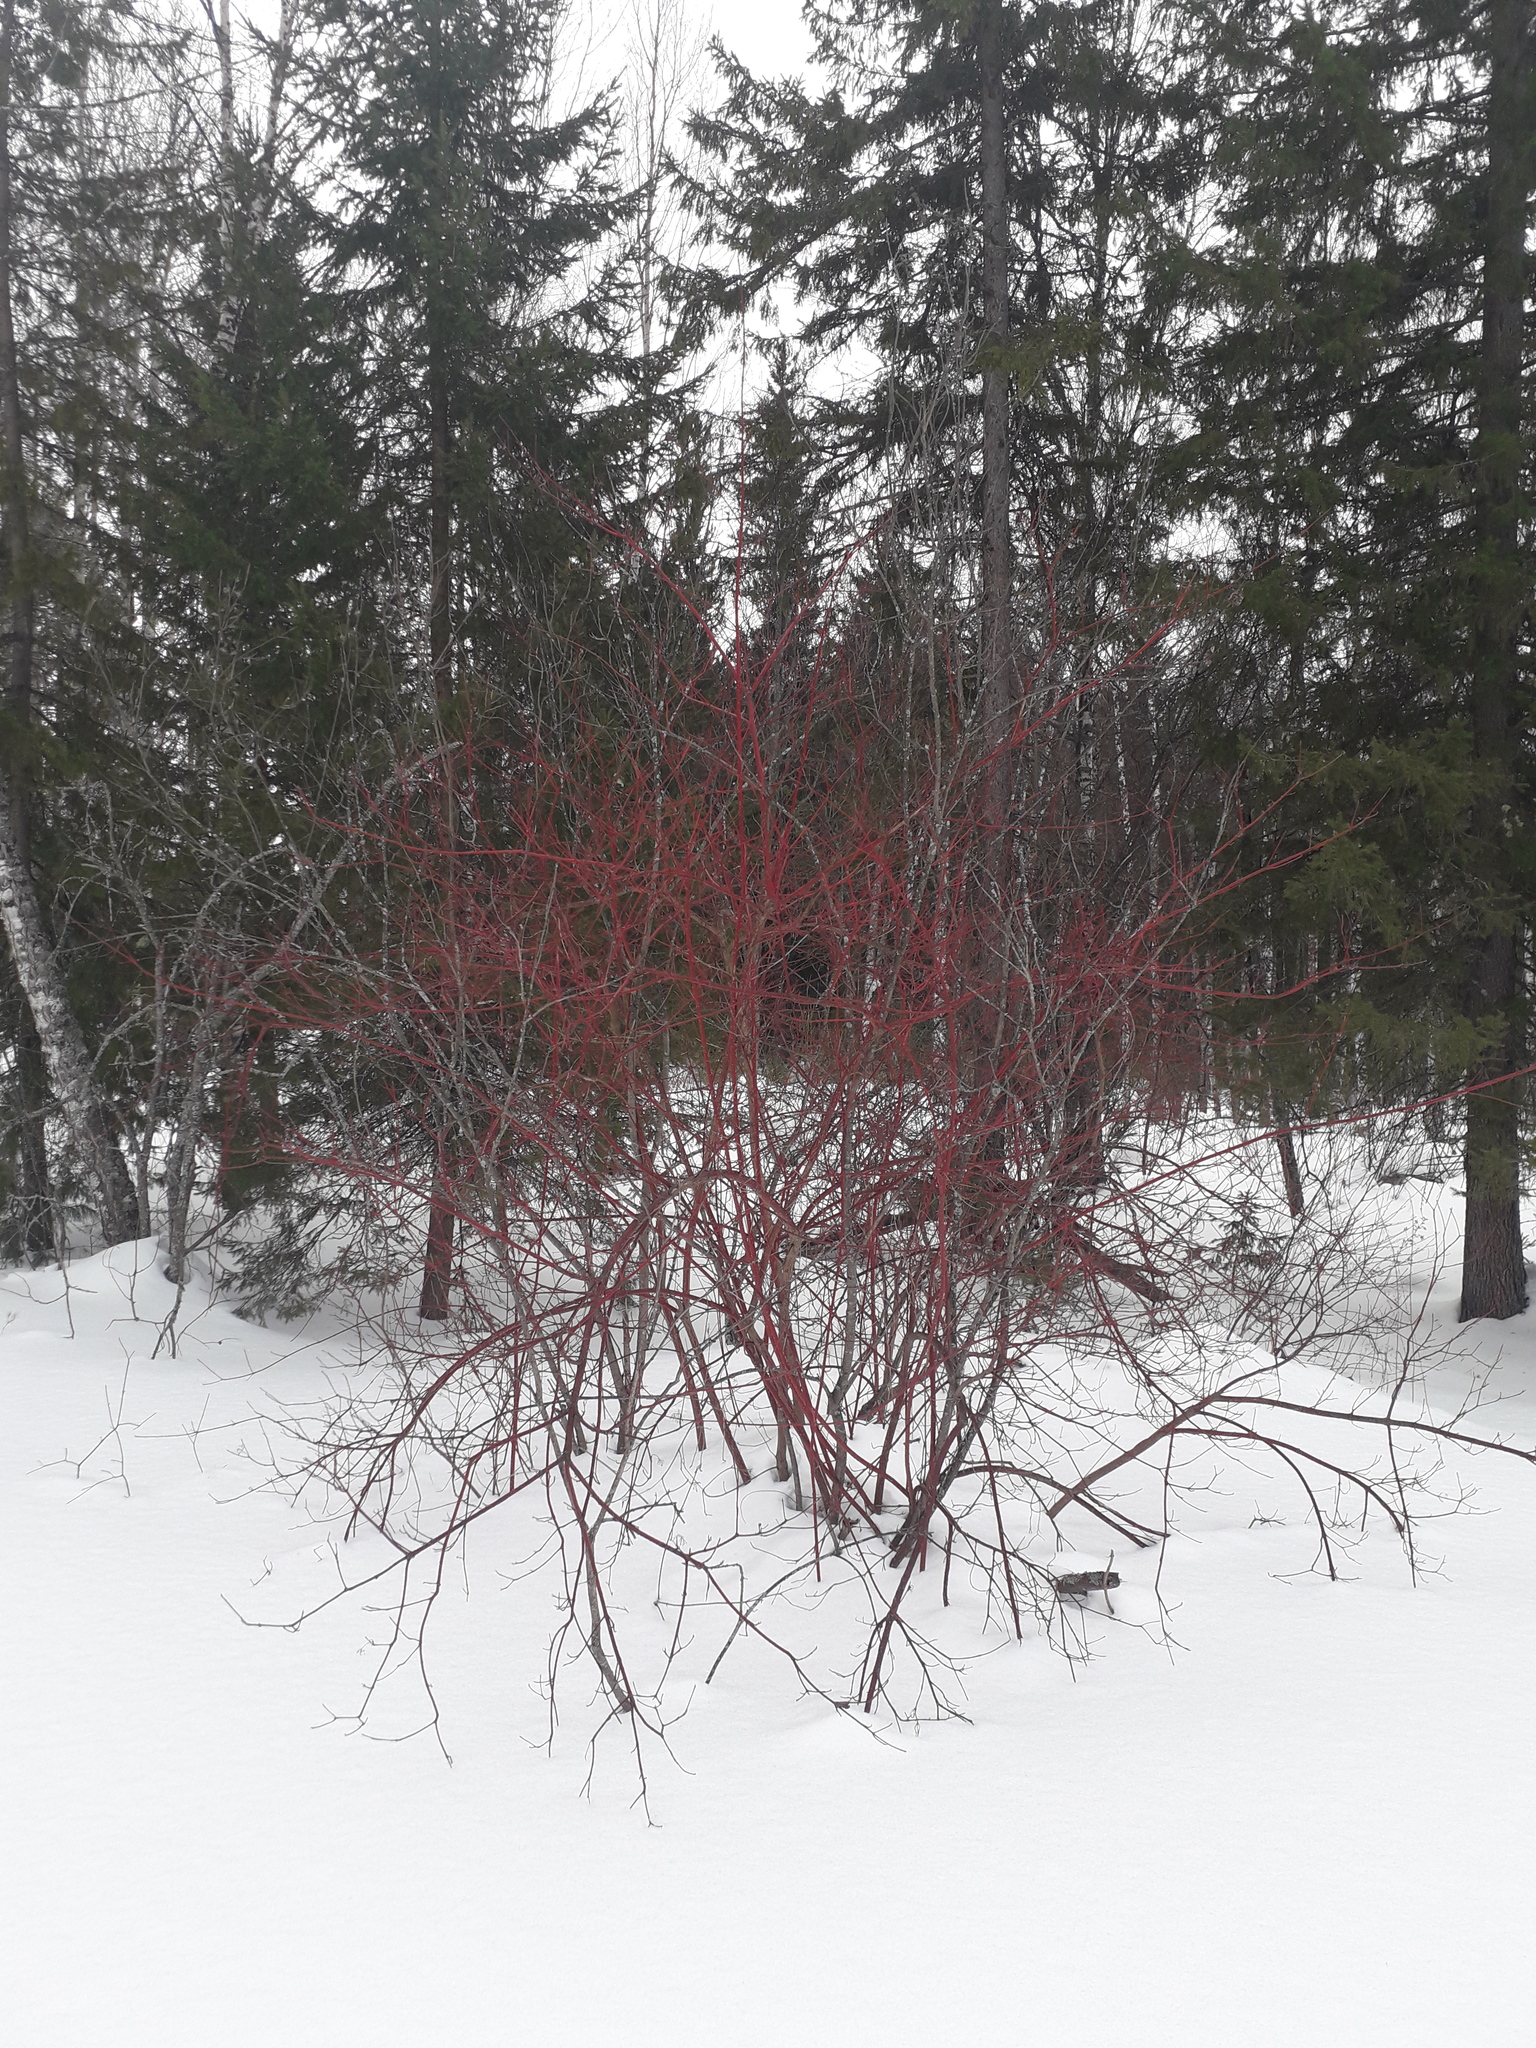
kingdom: Plantae
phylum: Tracheophyta
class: Magnoliopsida
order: Cornales
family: Cornaceae
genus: Cornus
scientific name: Cornus alba
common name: White dogwood
